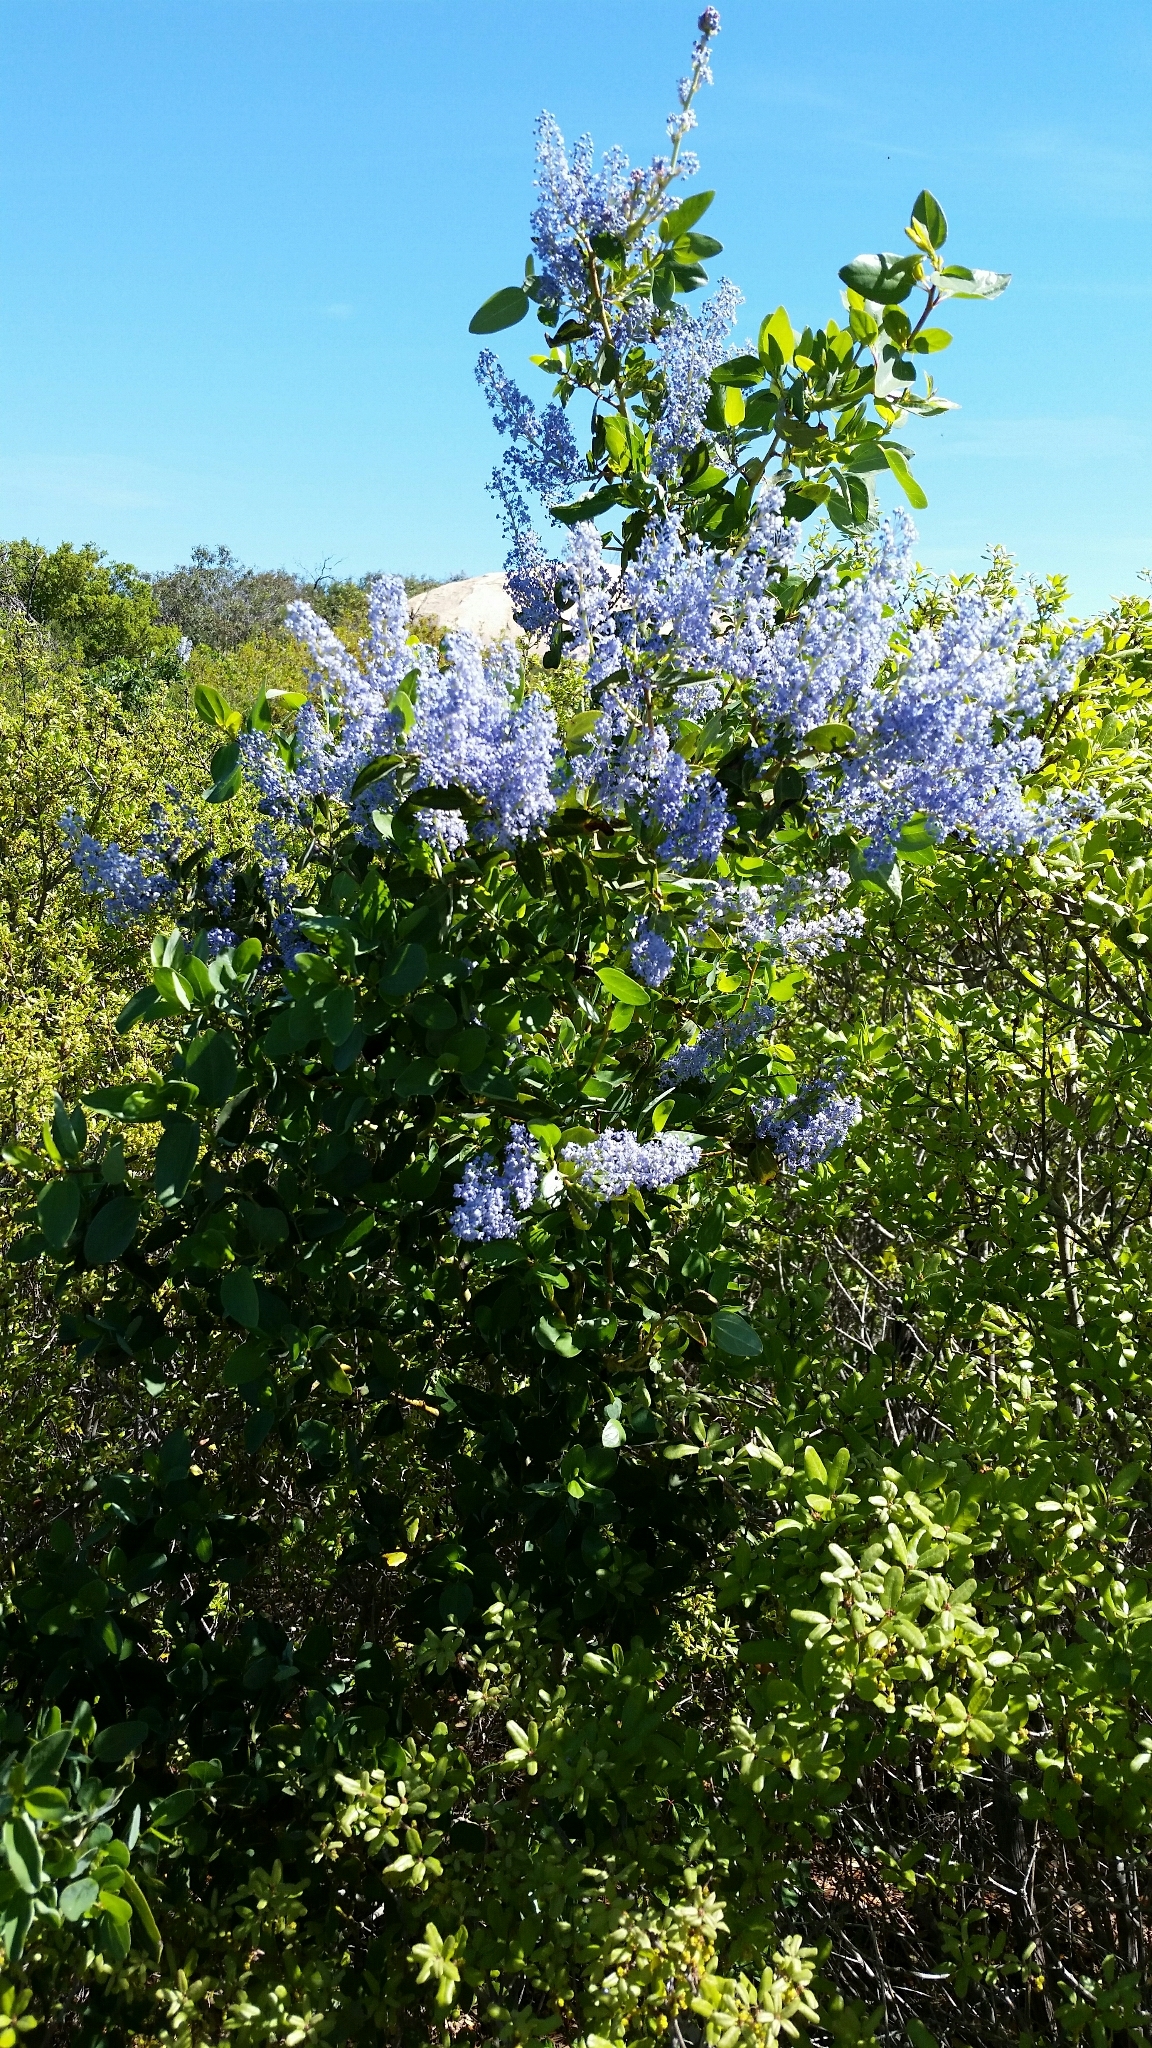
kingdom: Plantae
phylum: Tracheophyta
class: Magnoliopsida
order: Rosales
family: Rhamnaceae
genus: Ceanothus
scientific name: Ceanothus leucodermis
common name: Chaparral whitethorn
